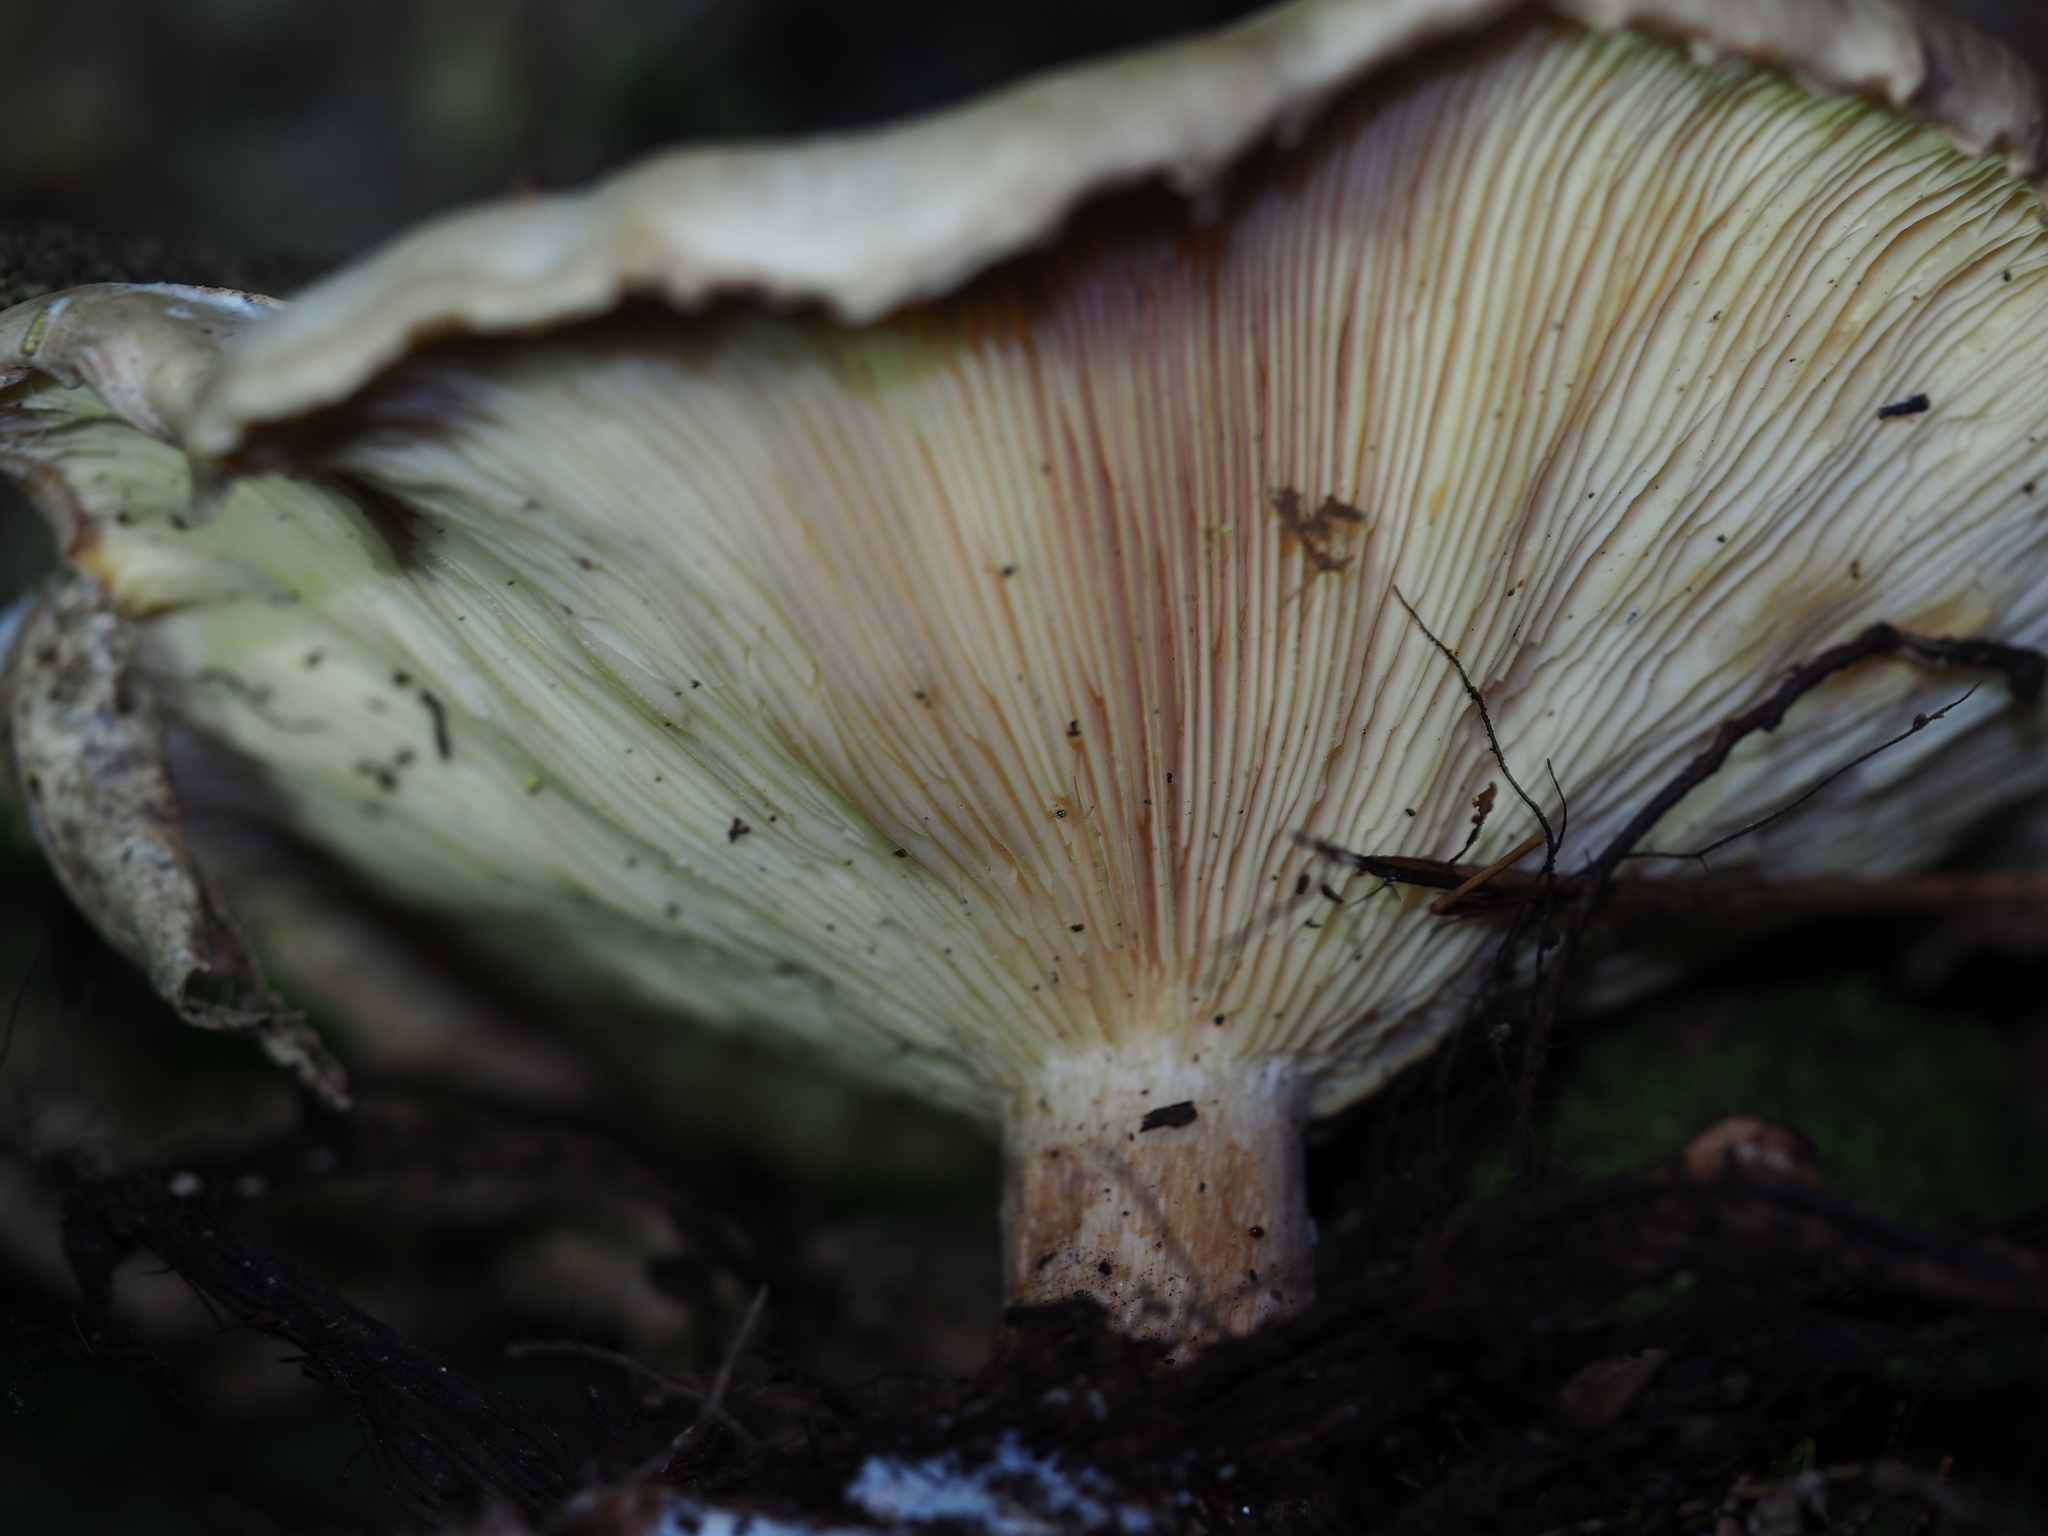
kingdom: Fungi
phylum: Basidiomycota
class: Agaricomycetes
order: Agaricales
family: Tricholomataceae
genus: Clitocybe
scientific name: Clitocybe nebularis
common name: Clouded agaric
